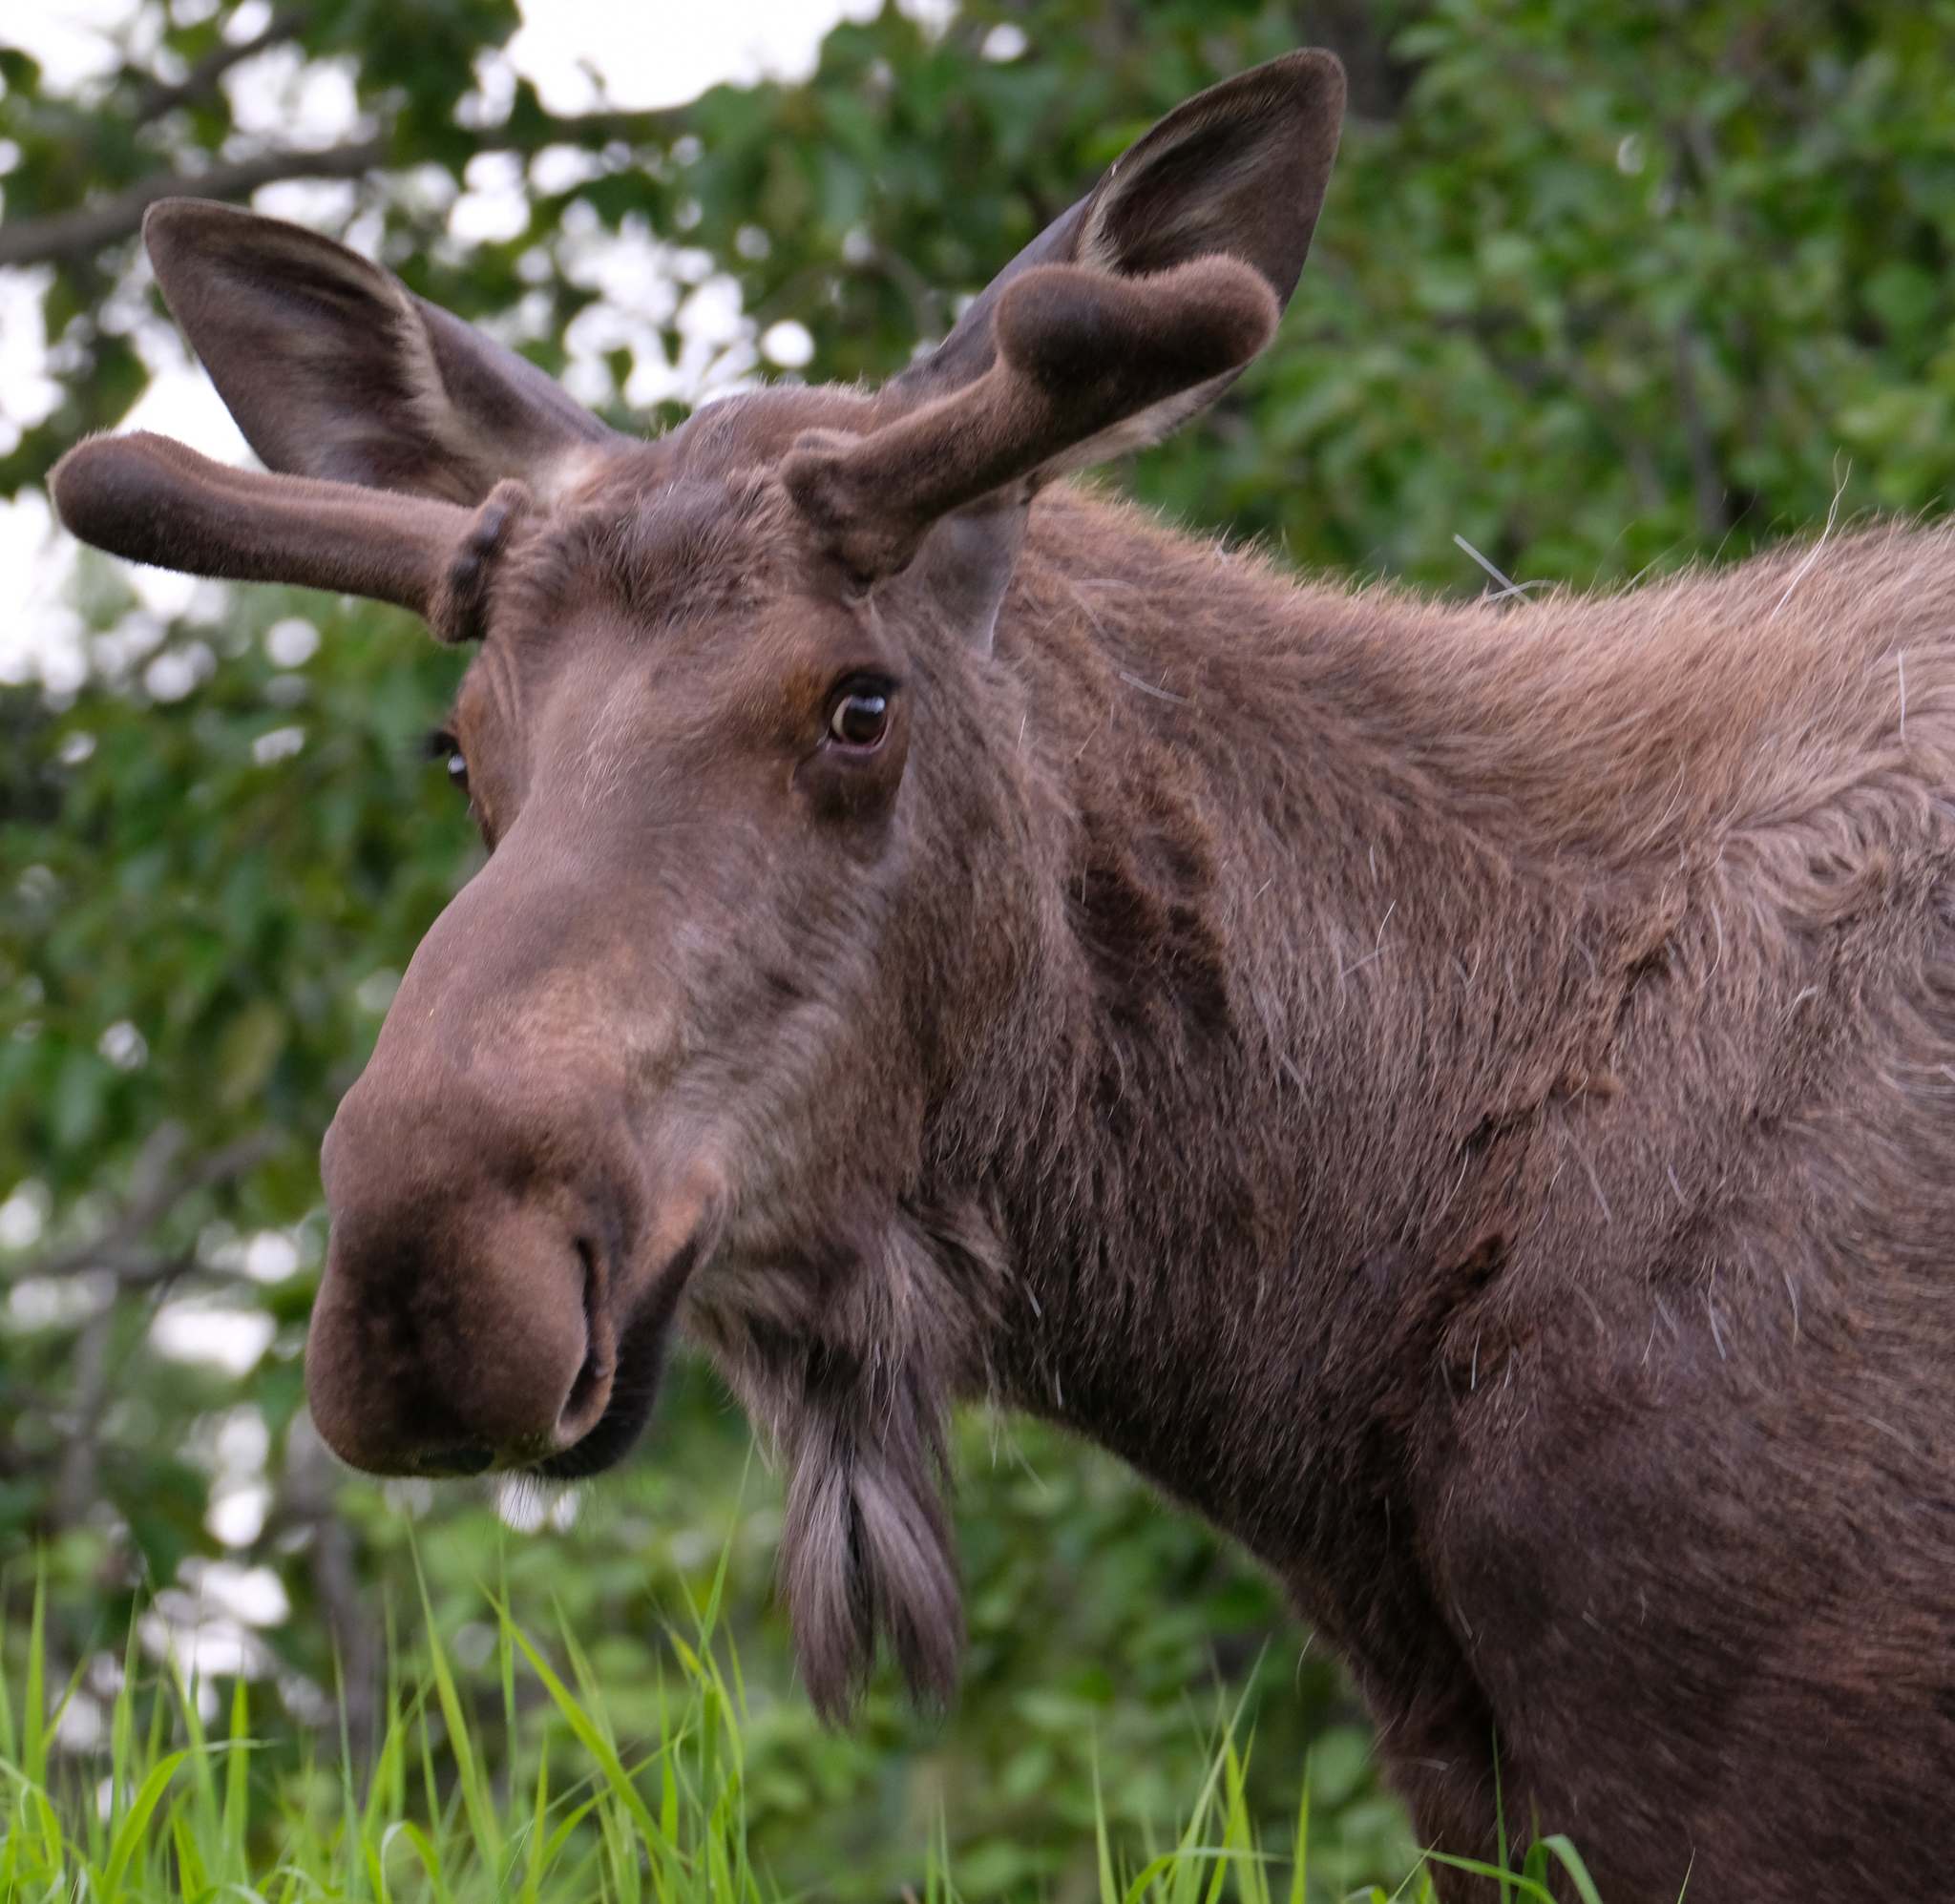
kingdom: Animalia
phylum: Chordata
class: Mammalia
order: Artiodactyla
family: Cervidae
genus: Alces
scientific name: Alces alces
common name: Moose
